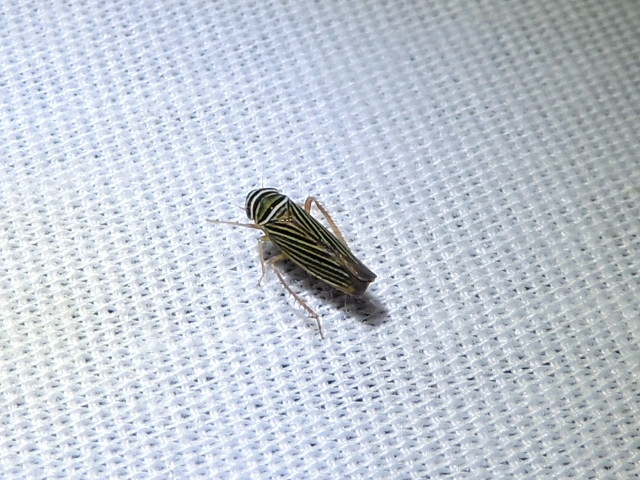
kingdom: Animalia
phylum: Arthropoda
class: Insecta
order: Hemiptera
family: Cicadellidae
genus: Tylozygus
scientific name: Tylozygus bifidus
